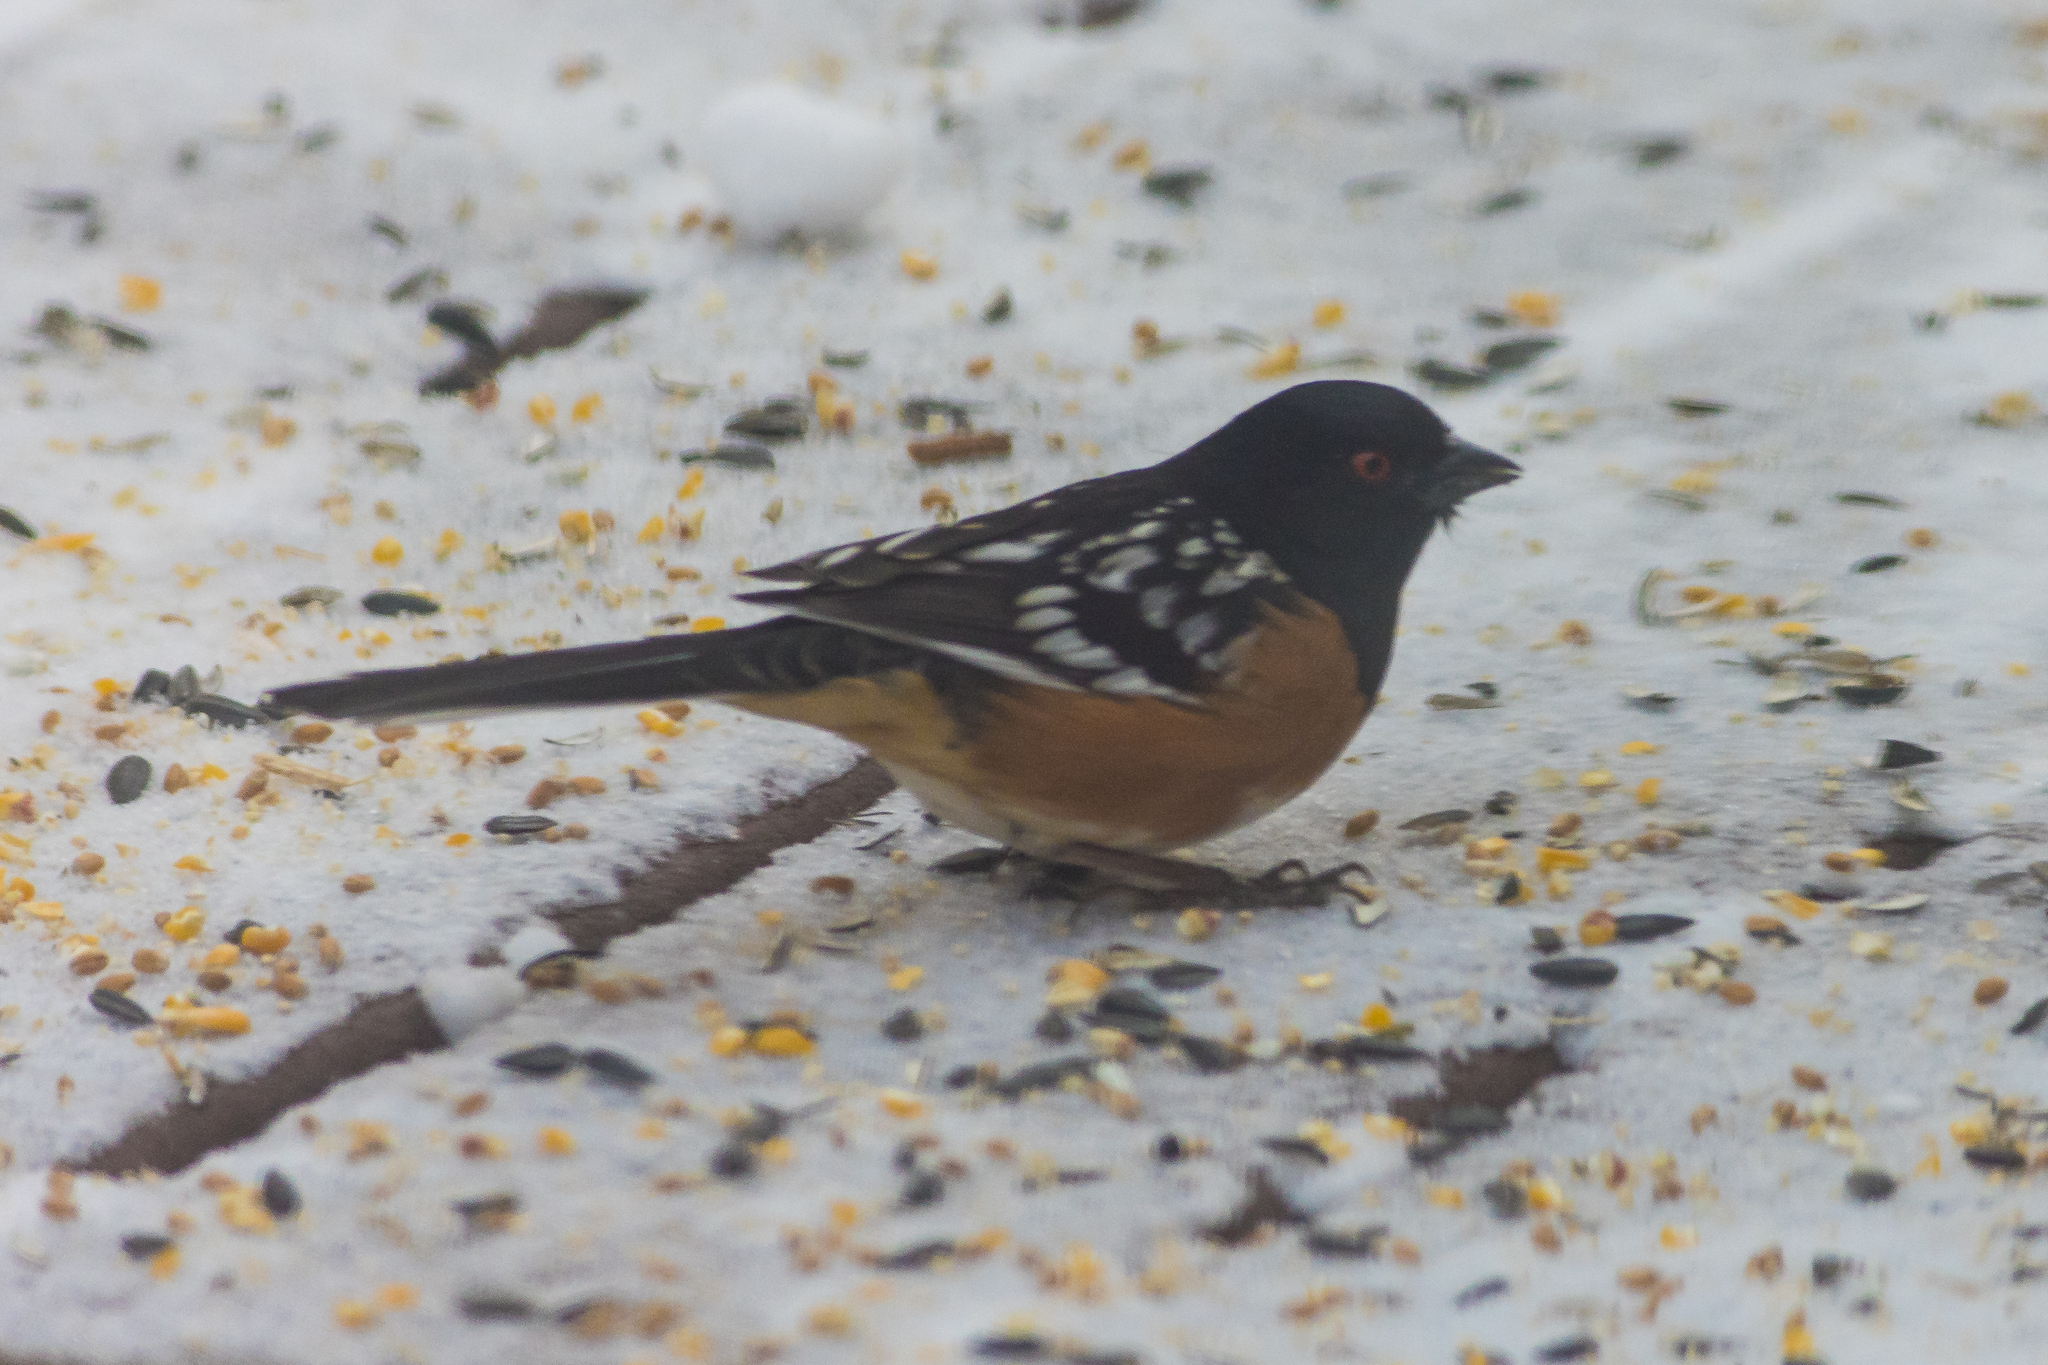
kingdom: Animalia
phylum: Chordata
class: Aves
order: Passeriformes
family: Passerellidae
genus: Pipilo
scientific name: Pipilo maculatus
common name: Spotted towhee
